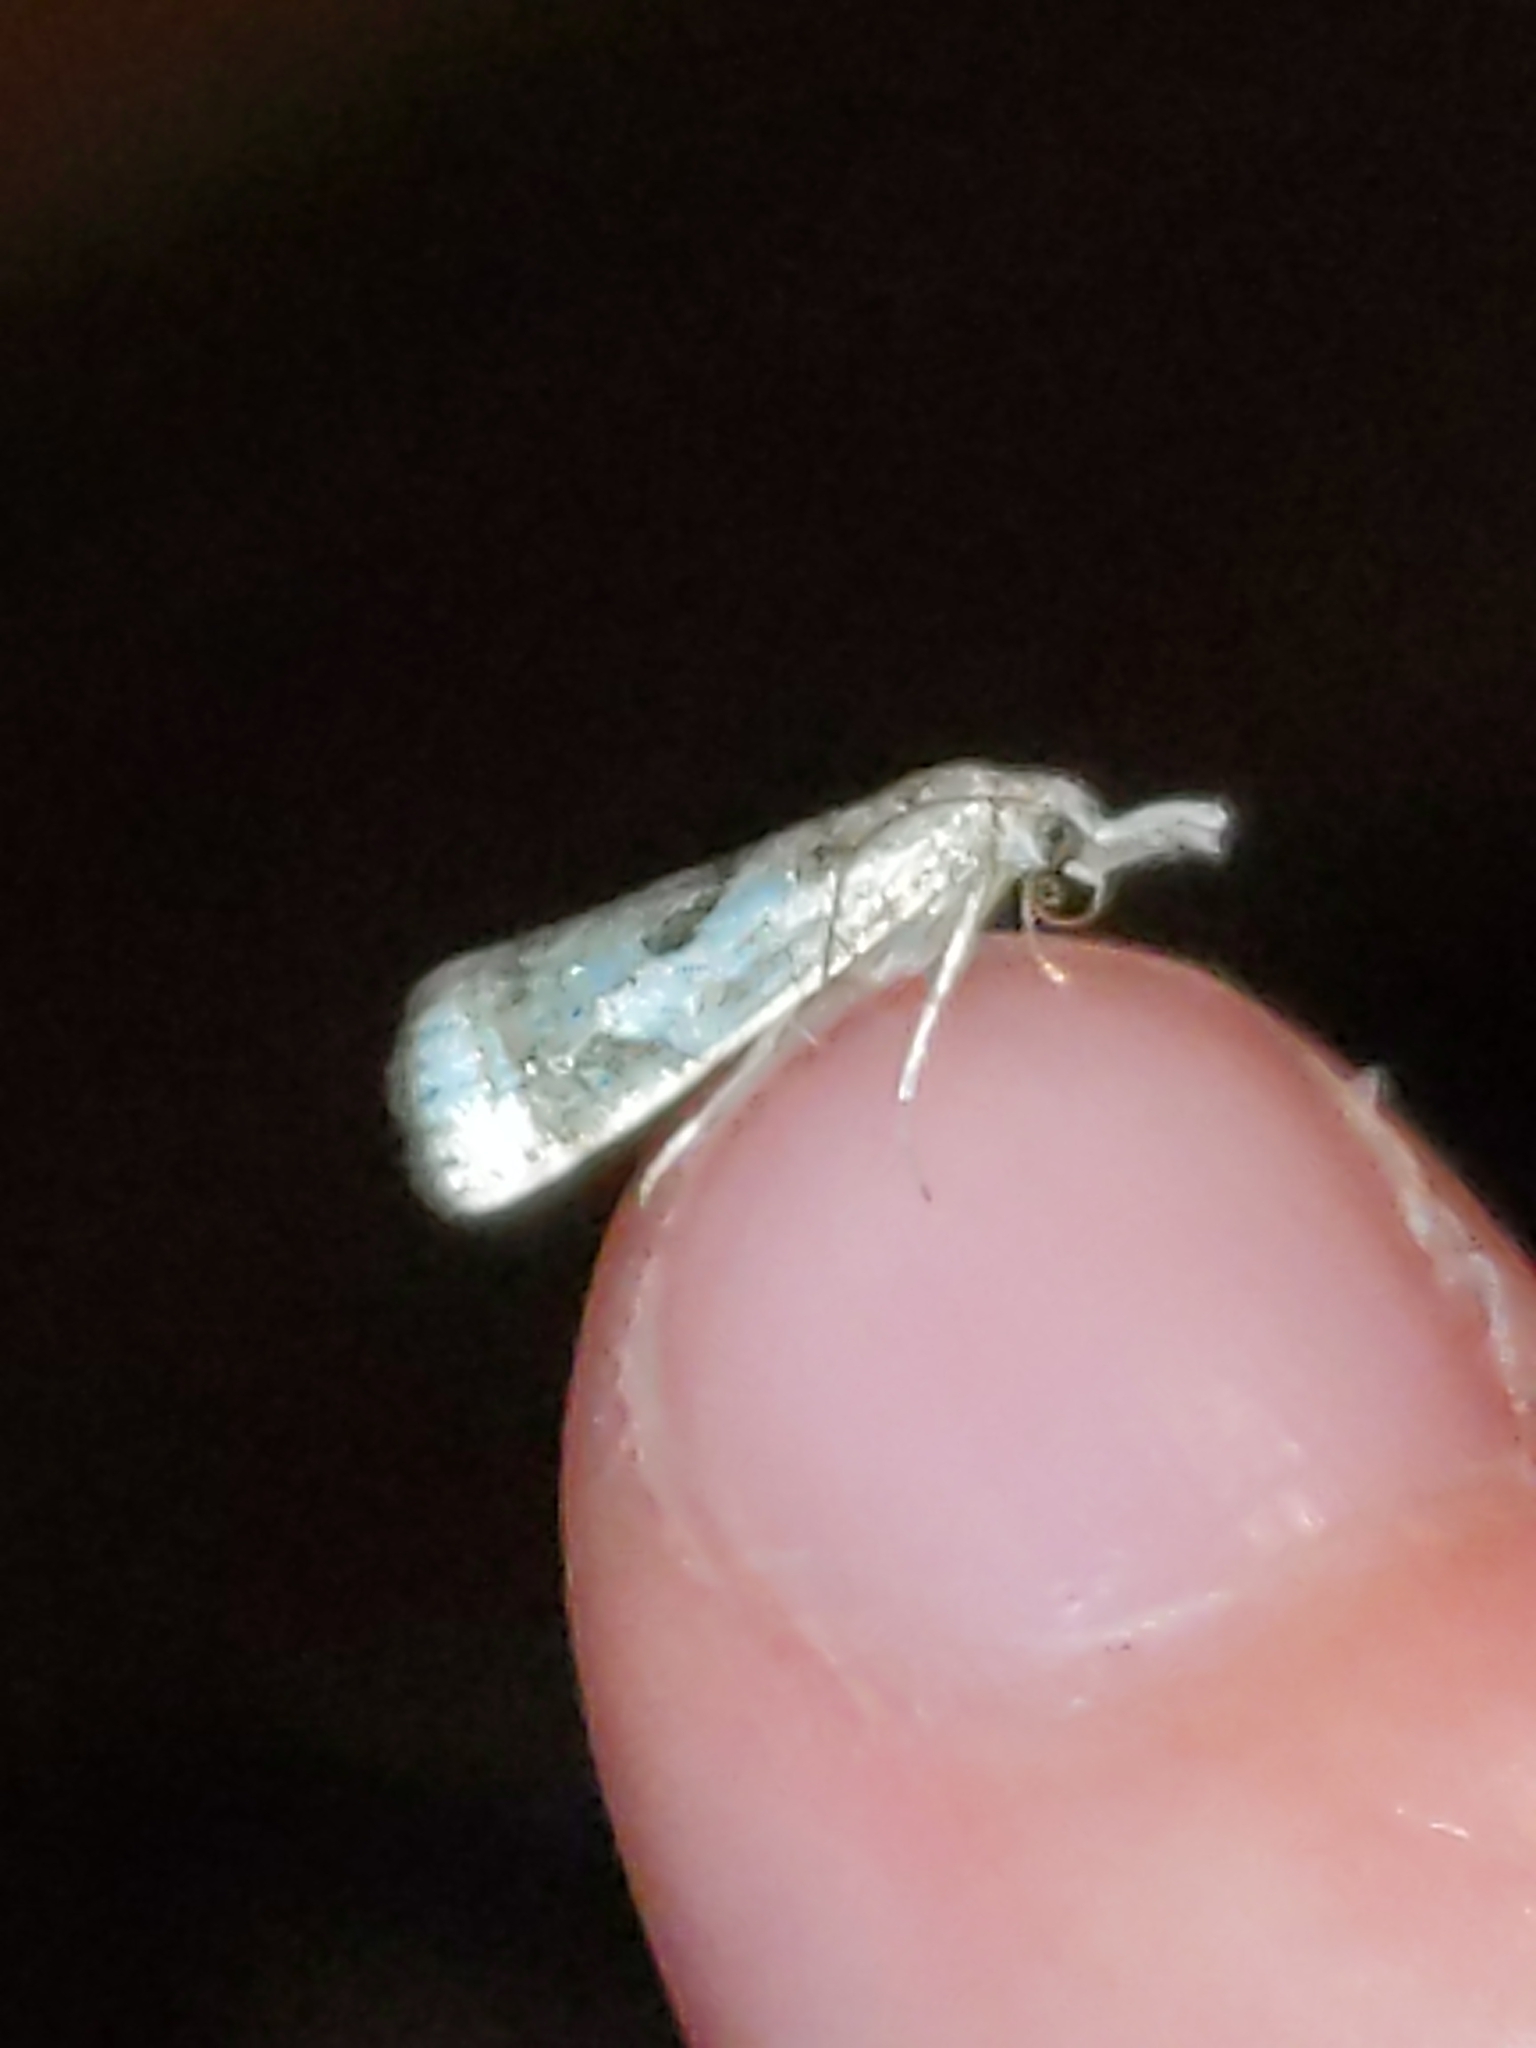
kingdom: Animalia
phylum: Arthropoda
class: Insecta
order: Lepidoptera
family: Crambidae
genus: Microcrambus
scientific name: Microcrambus elegans
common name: Elegant grass-veneer
